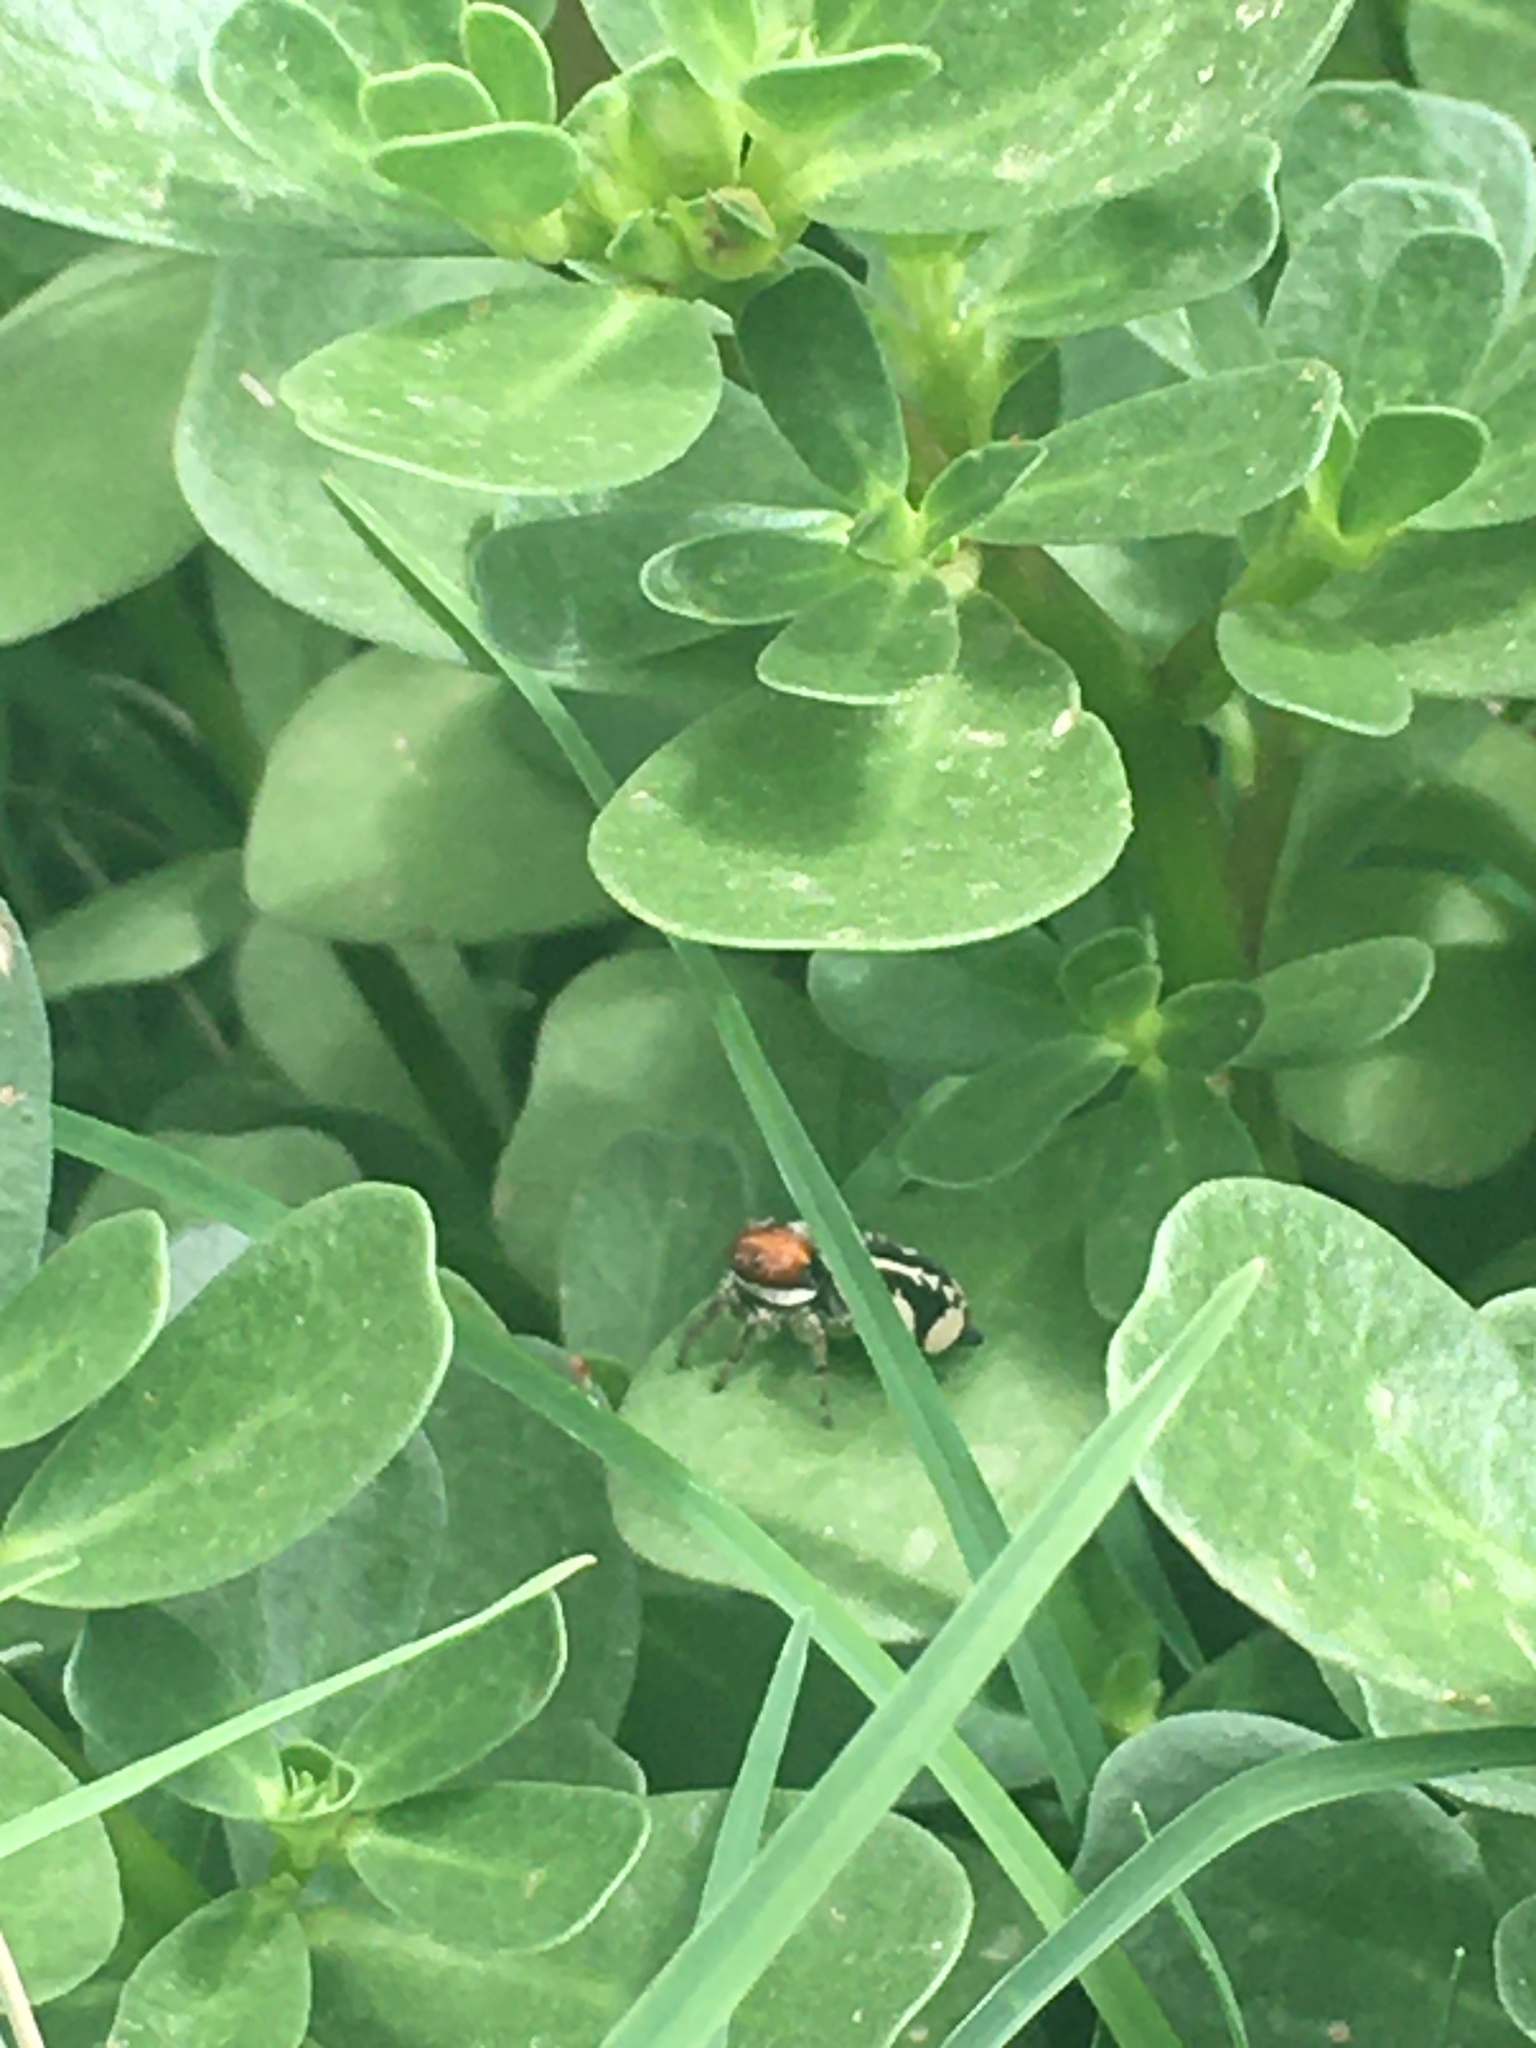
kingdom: Animalia
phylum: Arthropoda
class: Arachnida
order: Araneae
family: Salticidae
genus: Phiale
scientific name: Phiale roburifoliata
